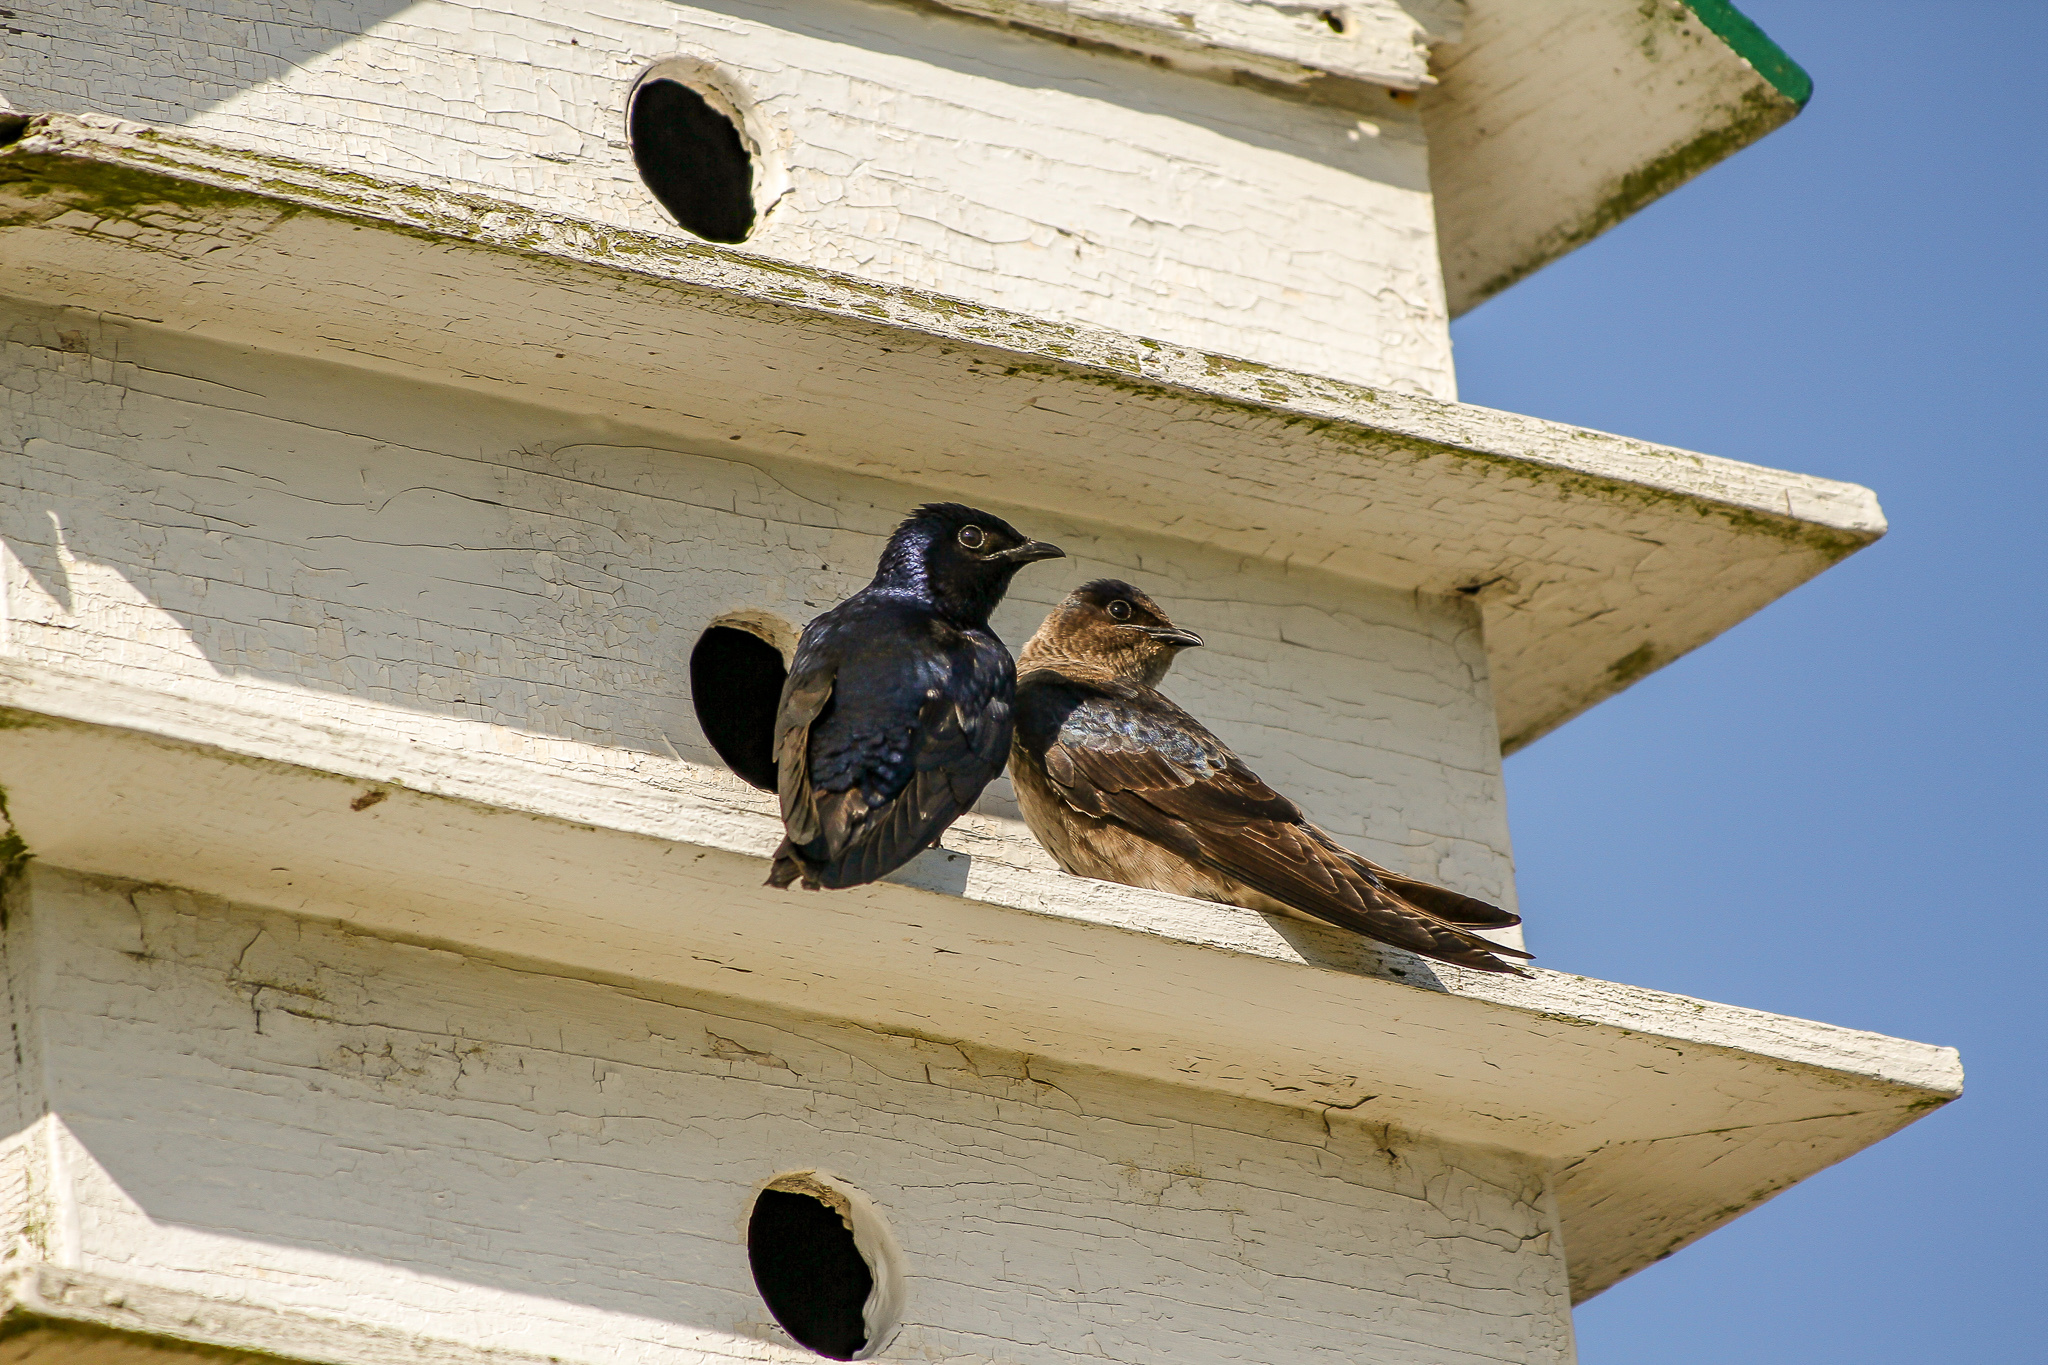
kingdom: Animalia
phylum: Chordata
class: Aves
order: Passeriformes
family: Hirundinidae
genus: Progne
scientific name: Progne subis
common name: Purple martin
